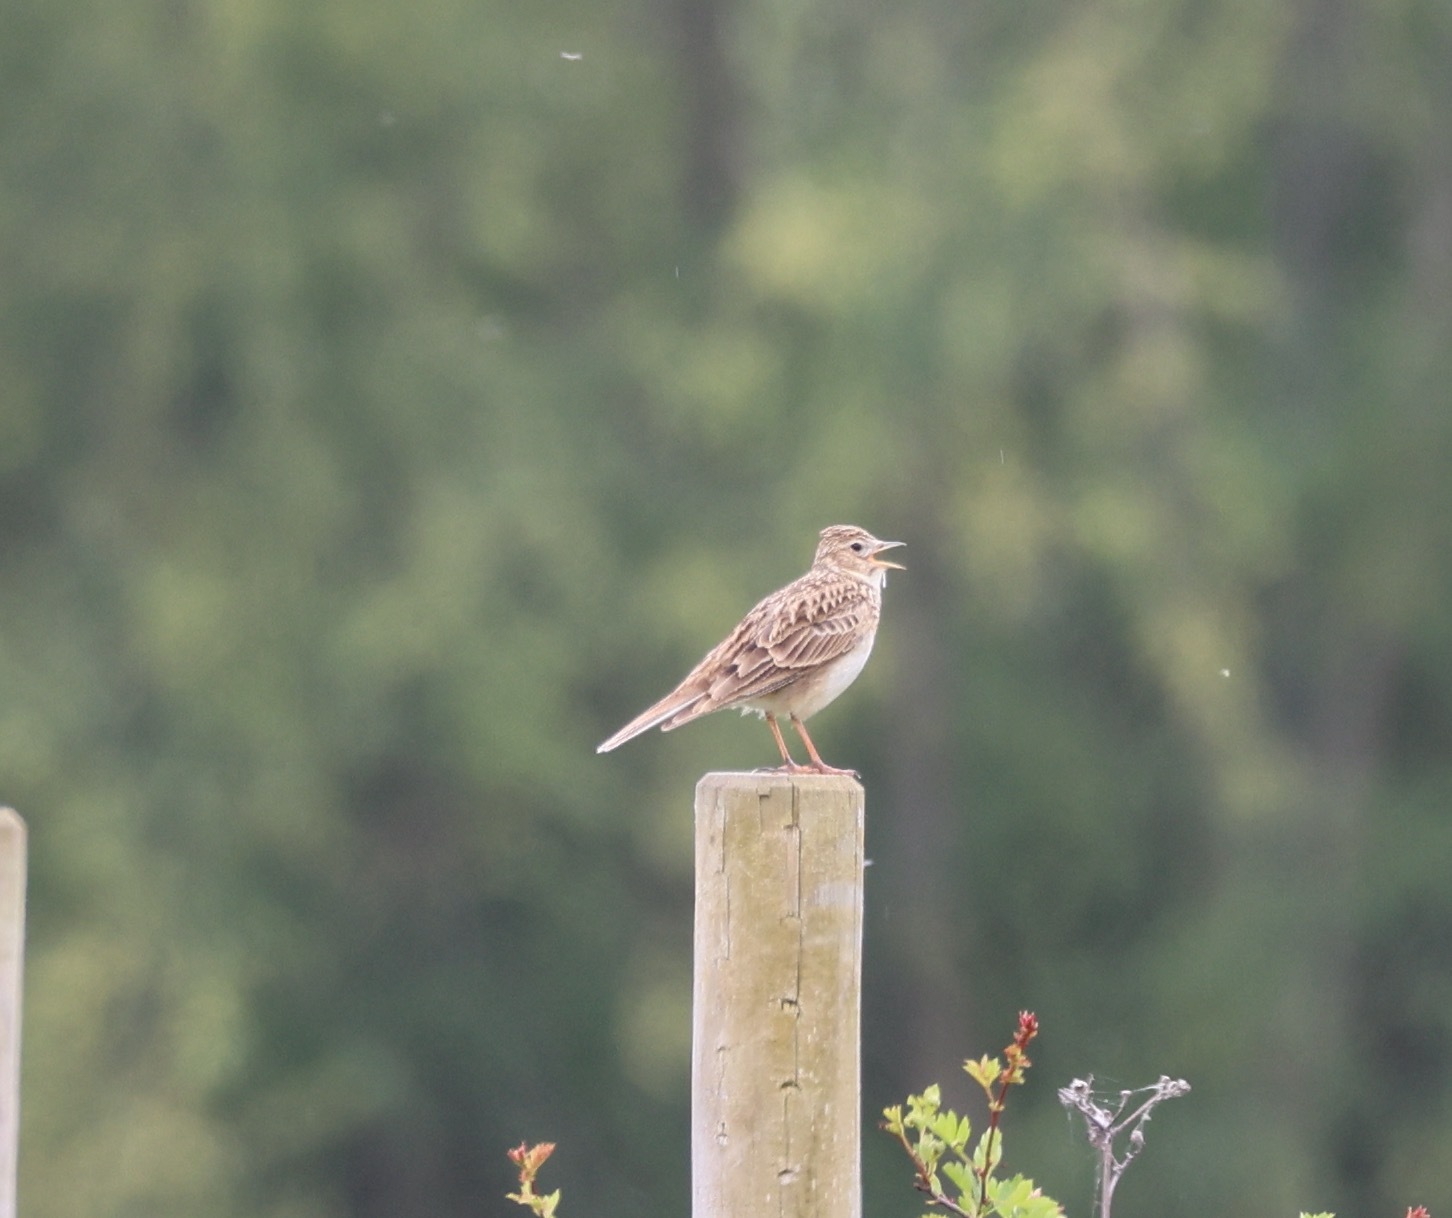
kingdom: Animalia
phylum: Chordata
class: Aves
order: Passeriformes
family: Alaudidae
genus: Alauda
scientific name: Alauda arvensis
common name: Eurasian skylark
